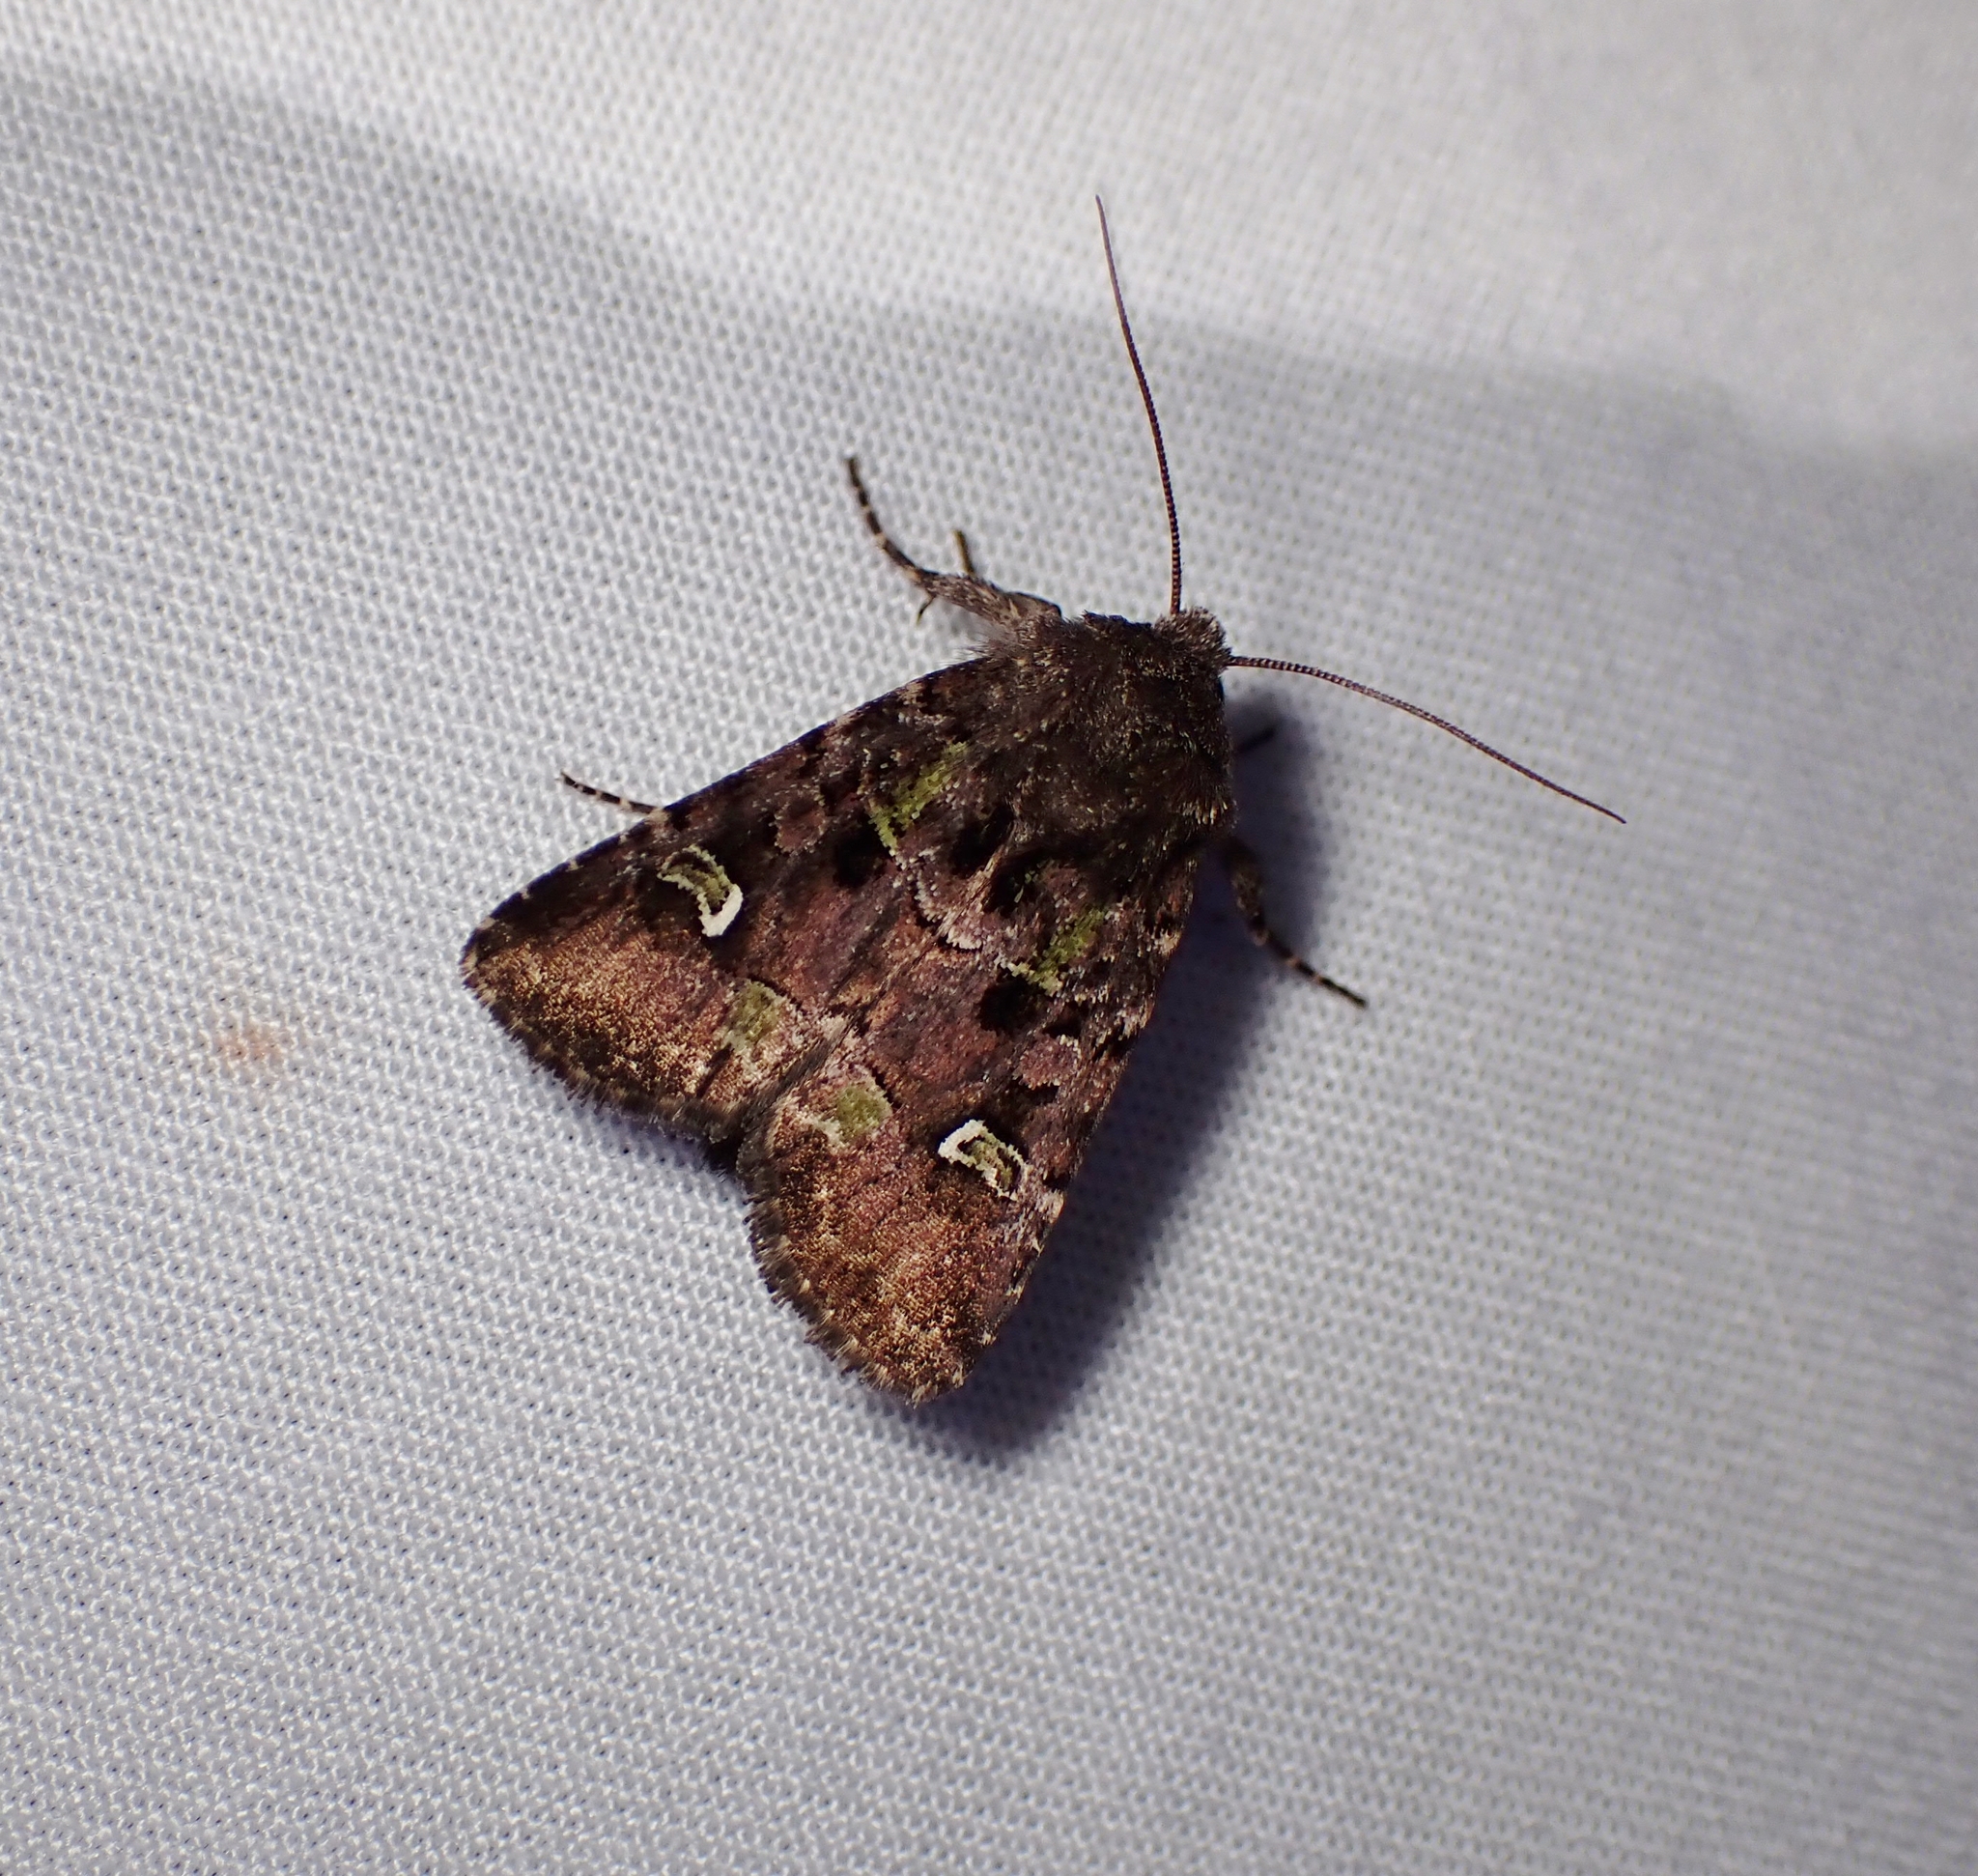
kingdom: Animalia
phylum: Arthropoda
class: Insecta
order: Lepidoptera
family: Noctuidae
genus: Lacinipolia
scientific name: Lacinipolia renigera
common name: Kidney-spotted minor
